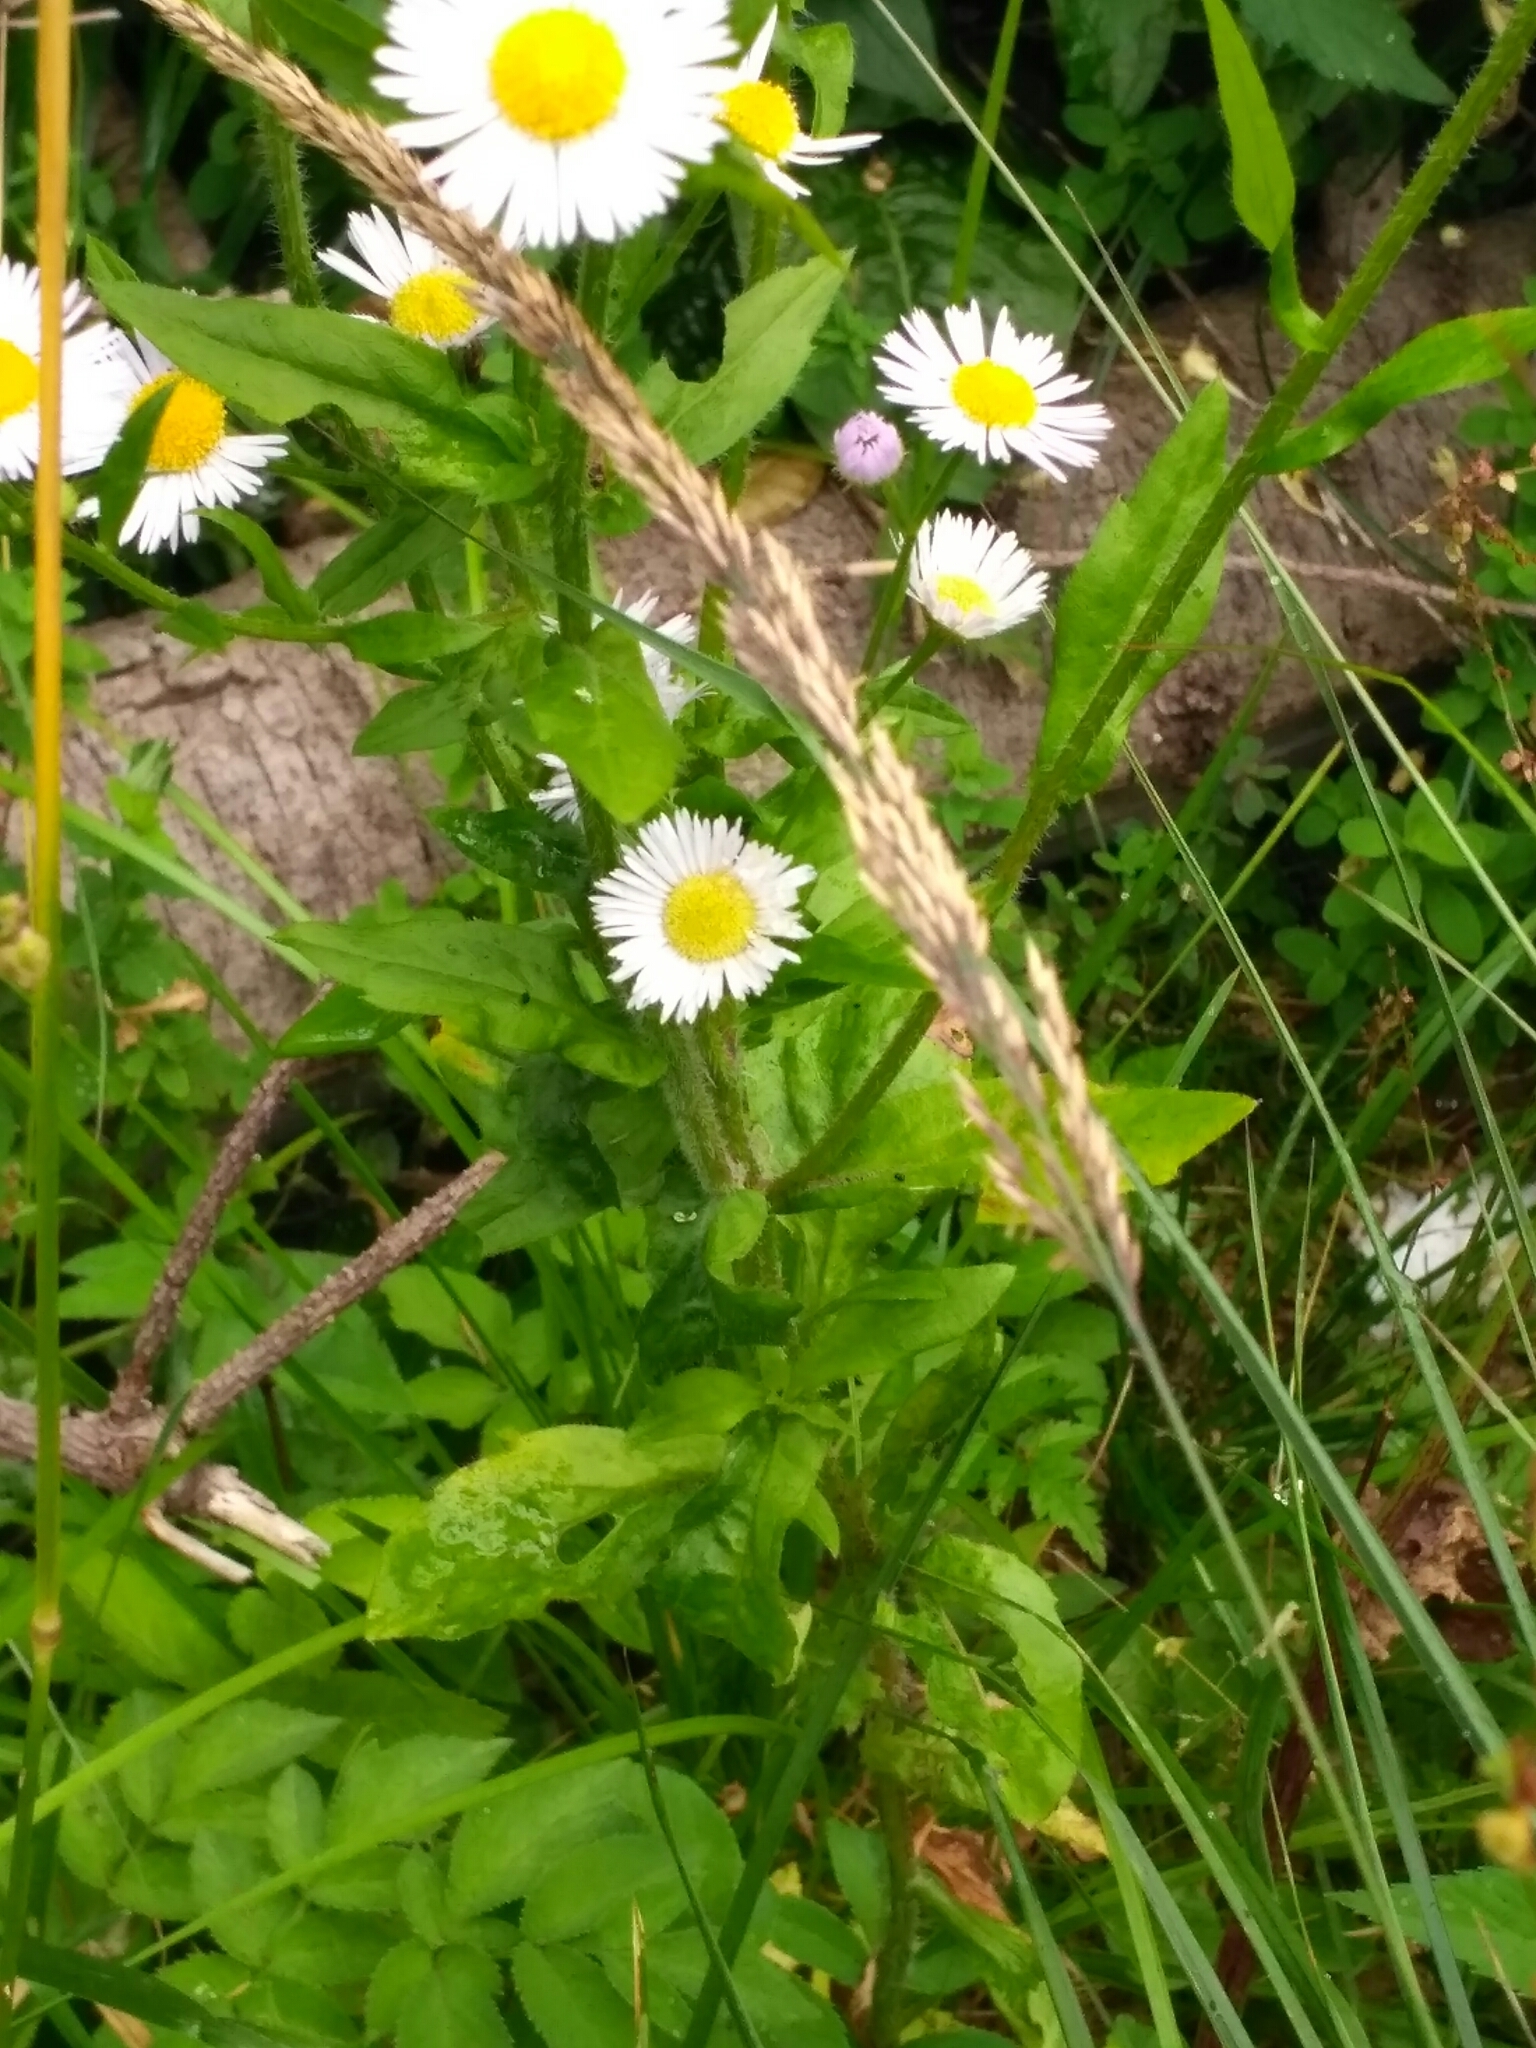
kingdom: Plantae
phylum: Tracheophyta
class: Magnoliopsida
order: Asterales
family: Asteraceae
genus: Erigeron
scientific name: Erigeron annuus
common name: Tall fleabane
